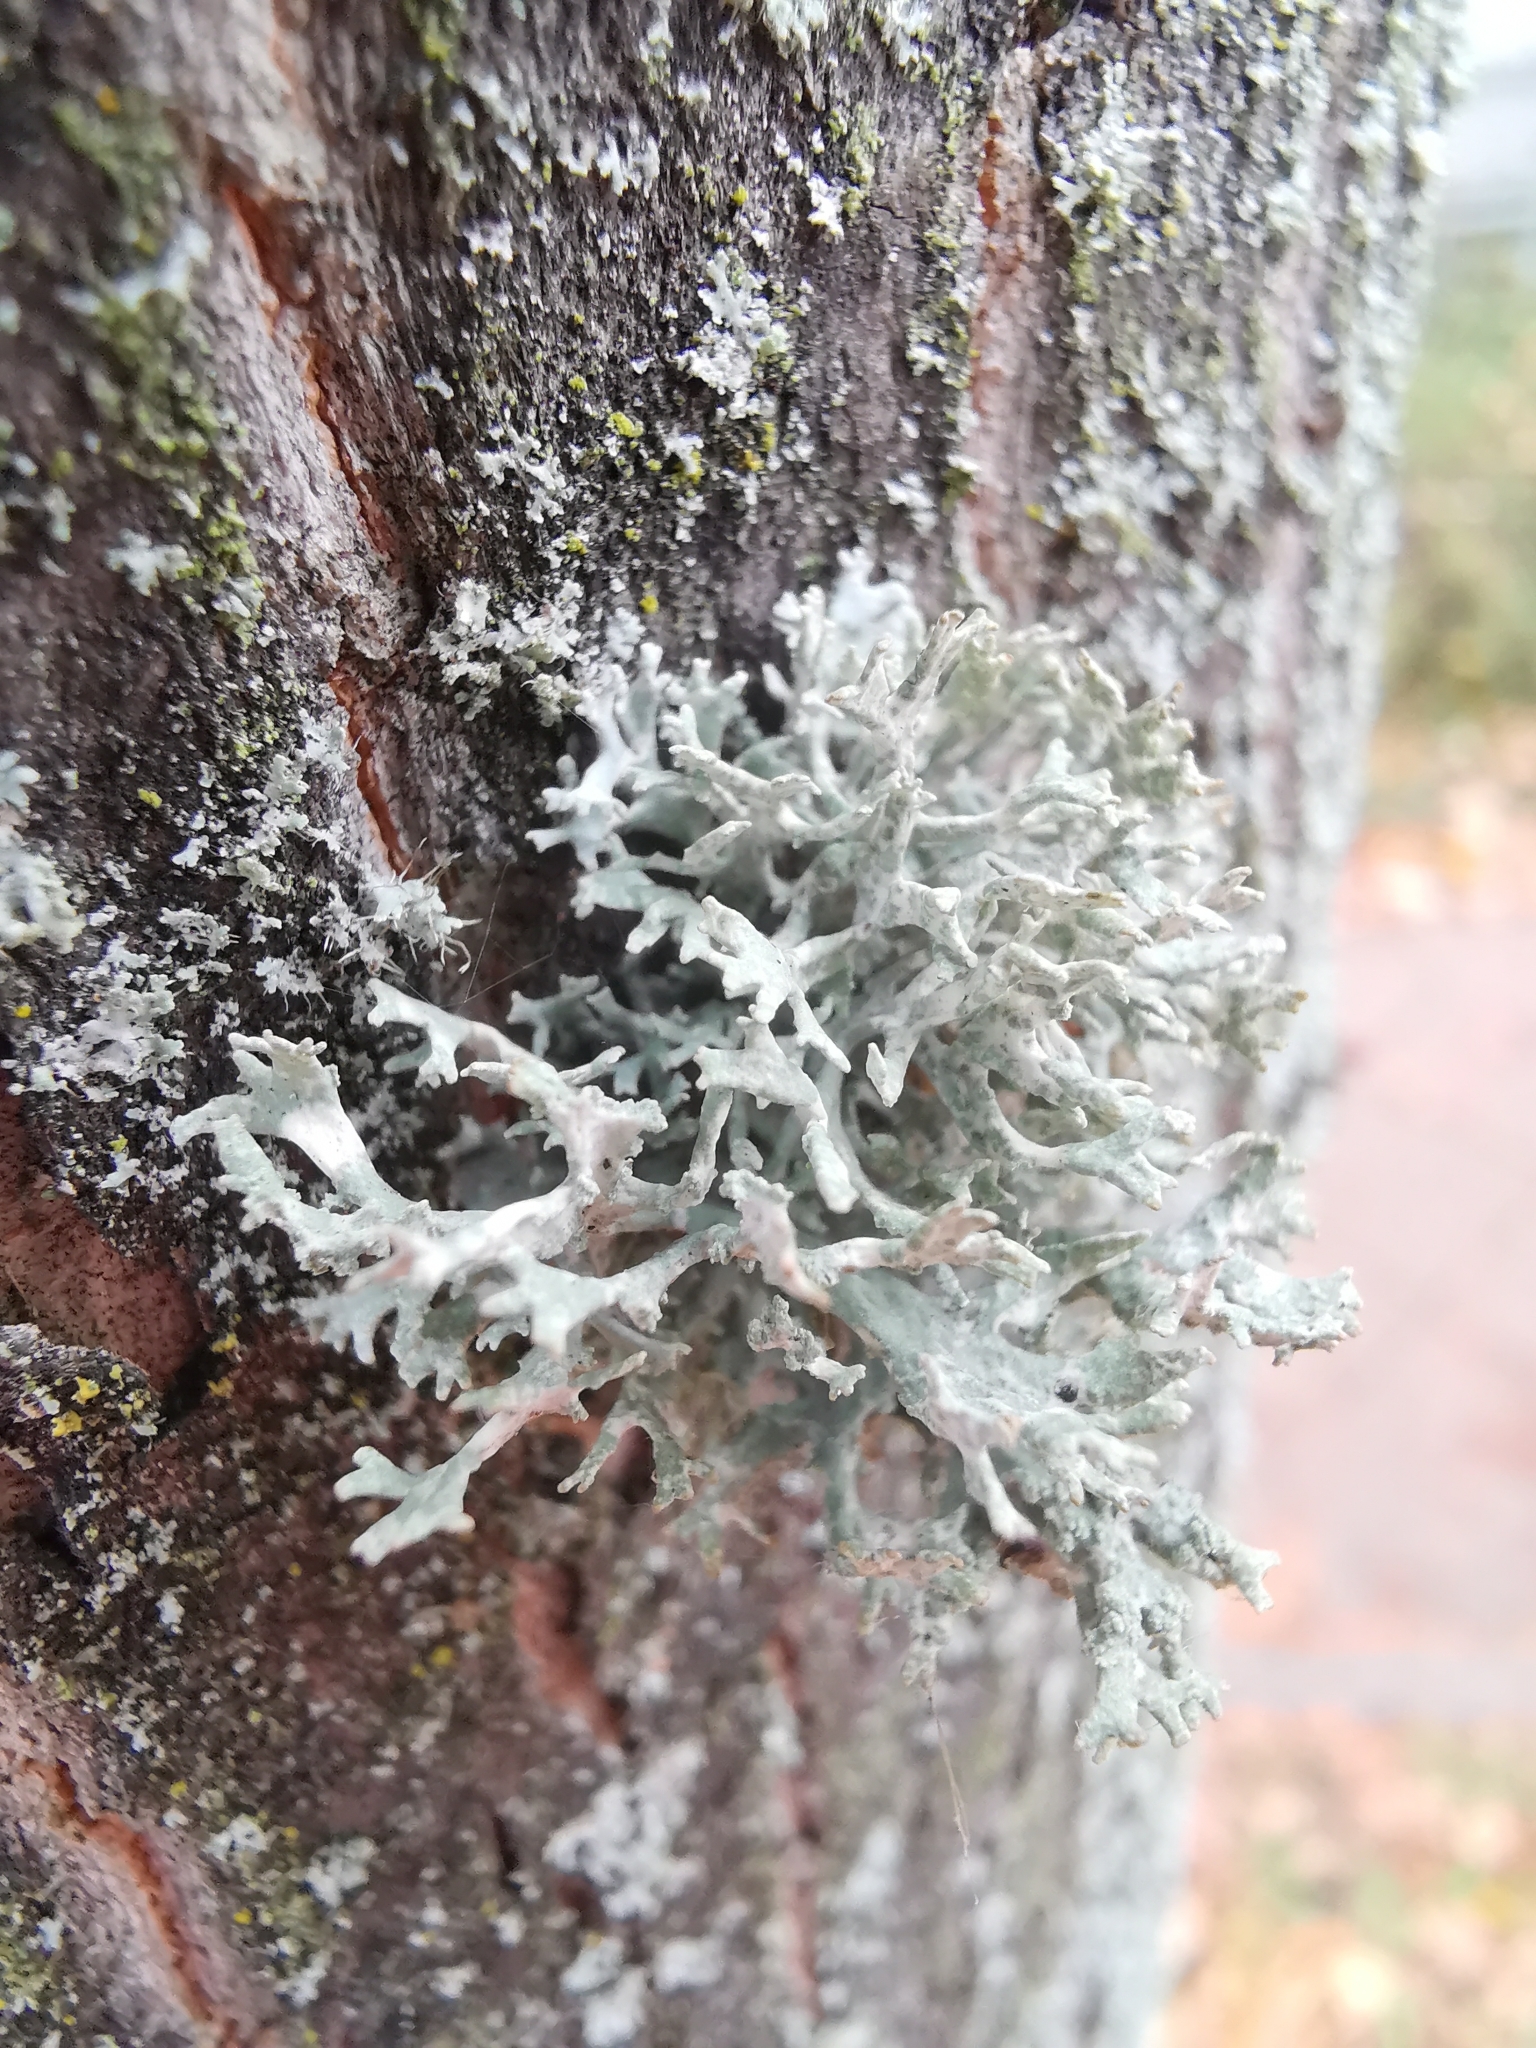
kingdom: Fungi
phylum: Ascomycota
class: Lecanoromycetes
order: Lecanorales
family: Parmeliaceae
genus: Evernia
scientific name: Evernia prunastri
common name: Oak moss
